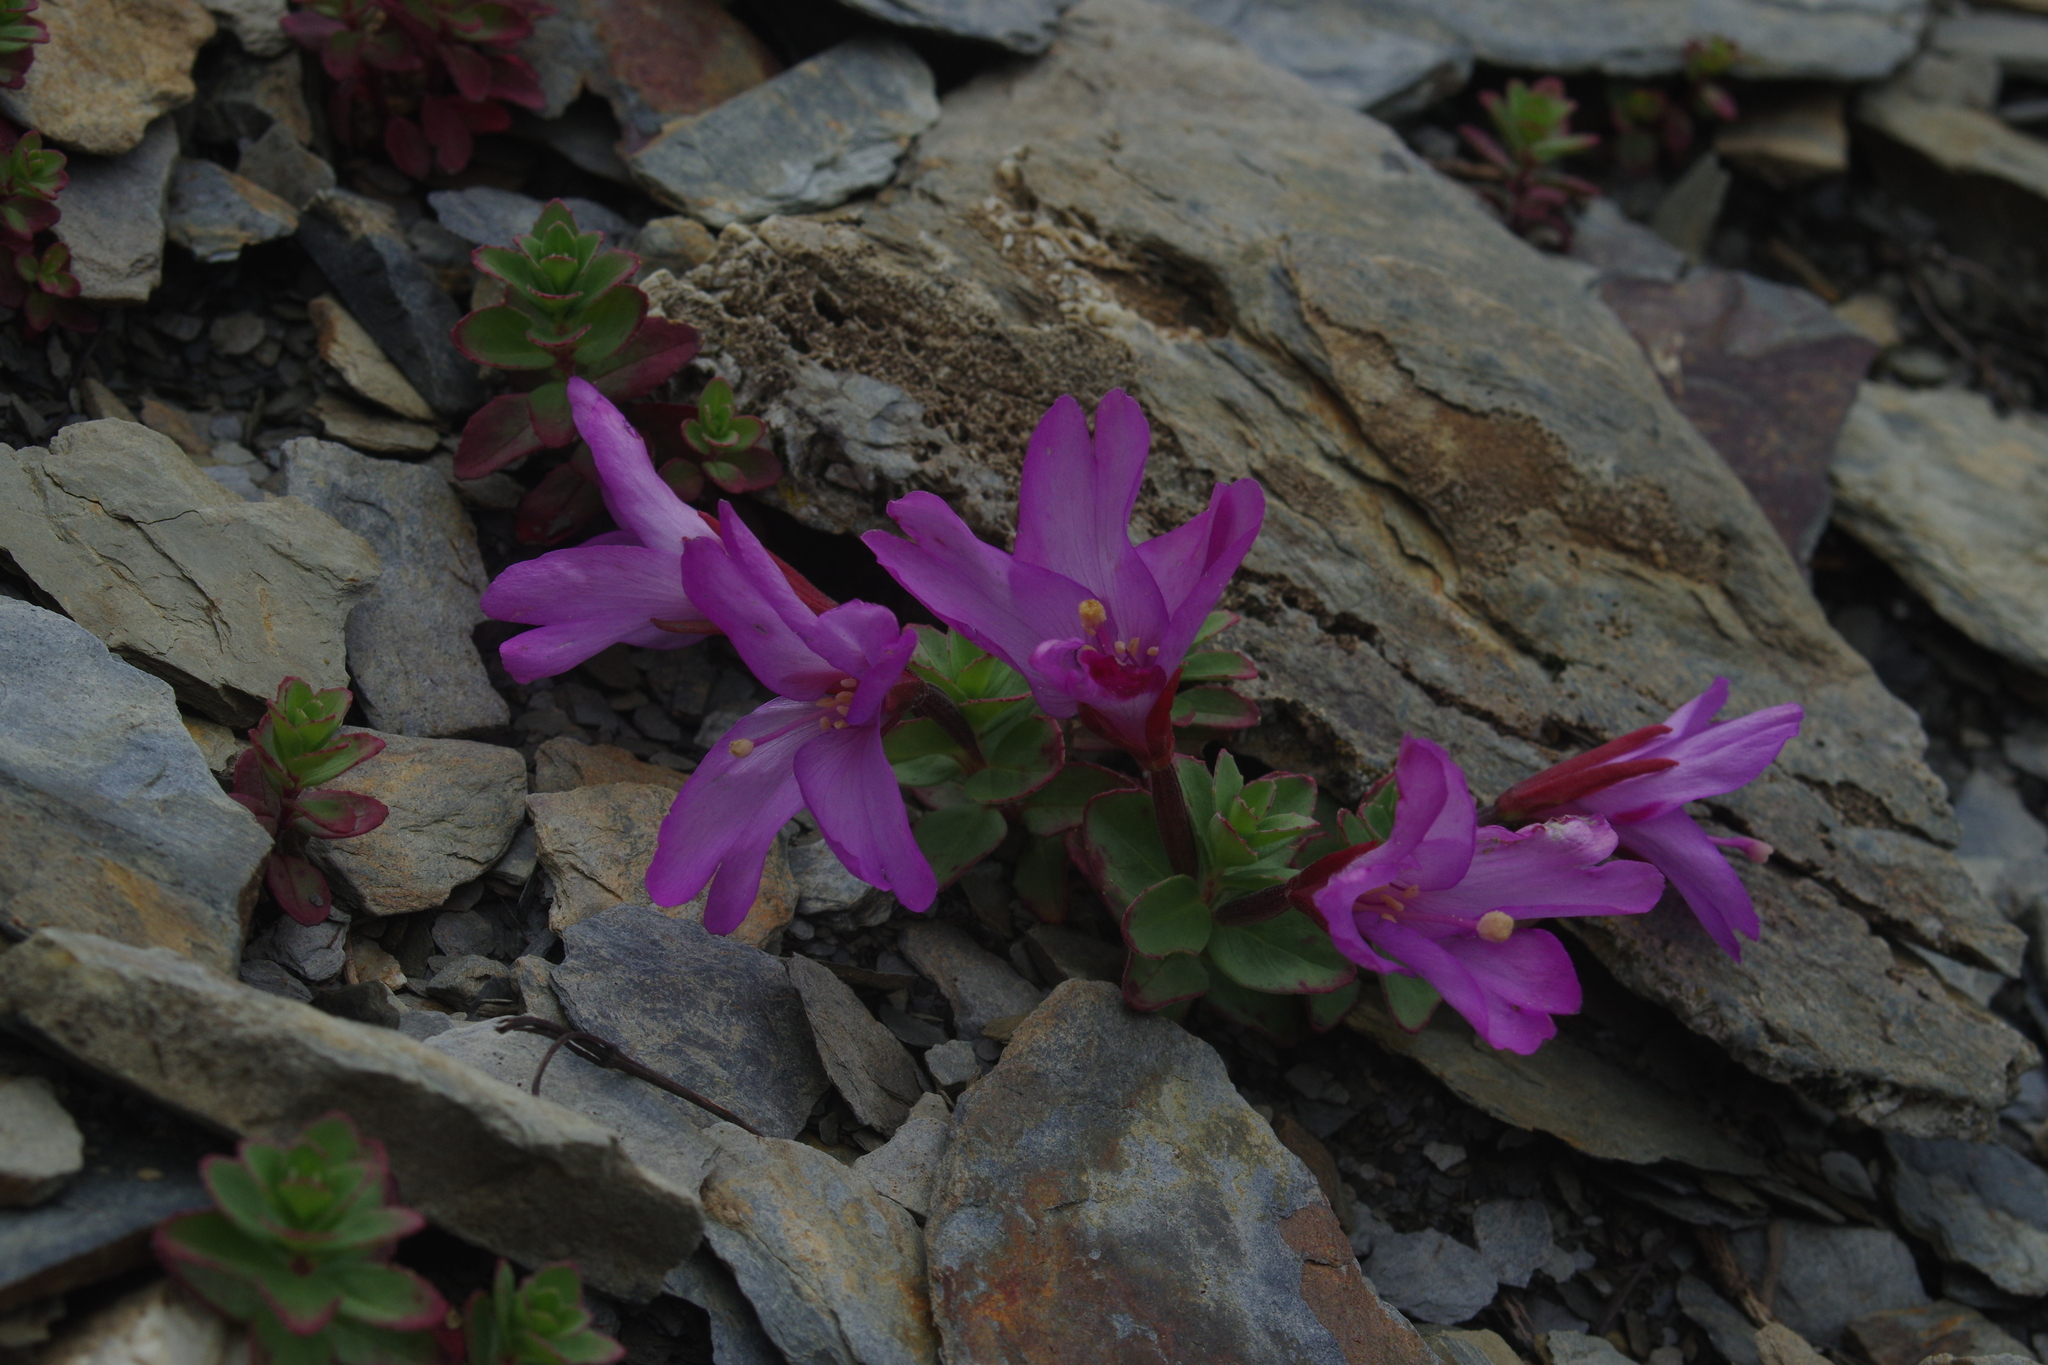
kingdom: Plantae
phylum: Tracheophyta
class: Magnoliopsida
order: Myrtales
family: Onagraceae
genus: Epilobium
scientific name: Epilobium nankotaizanense
